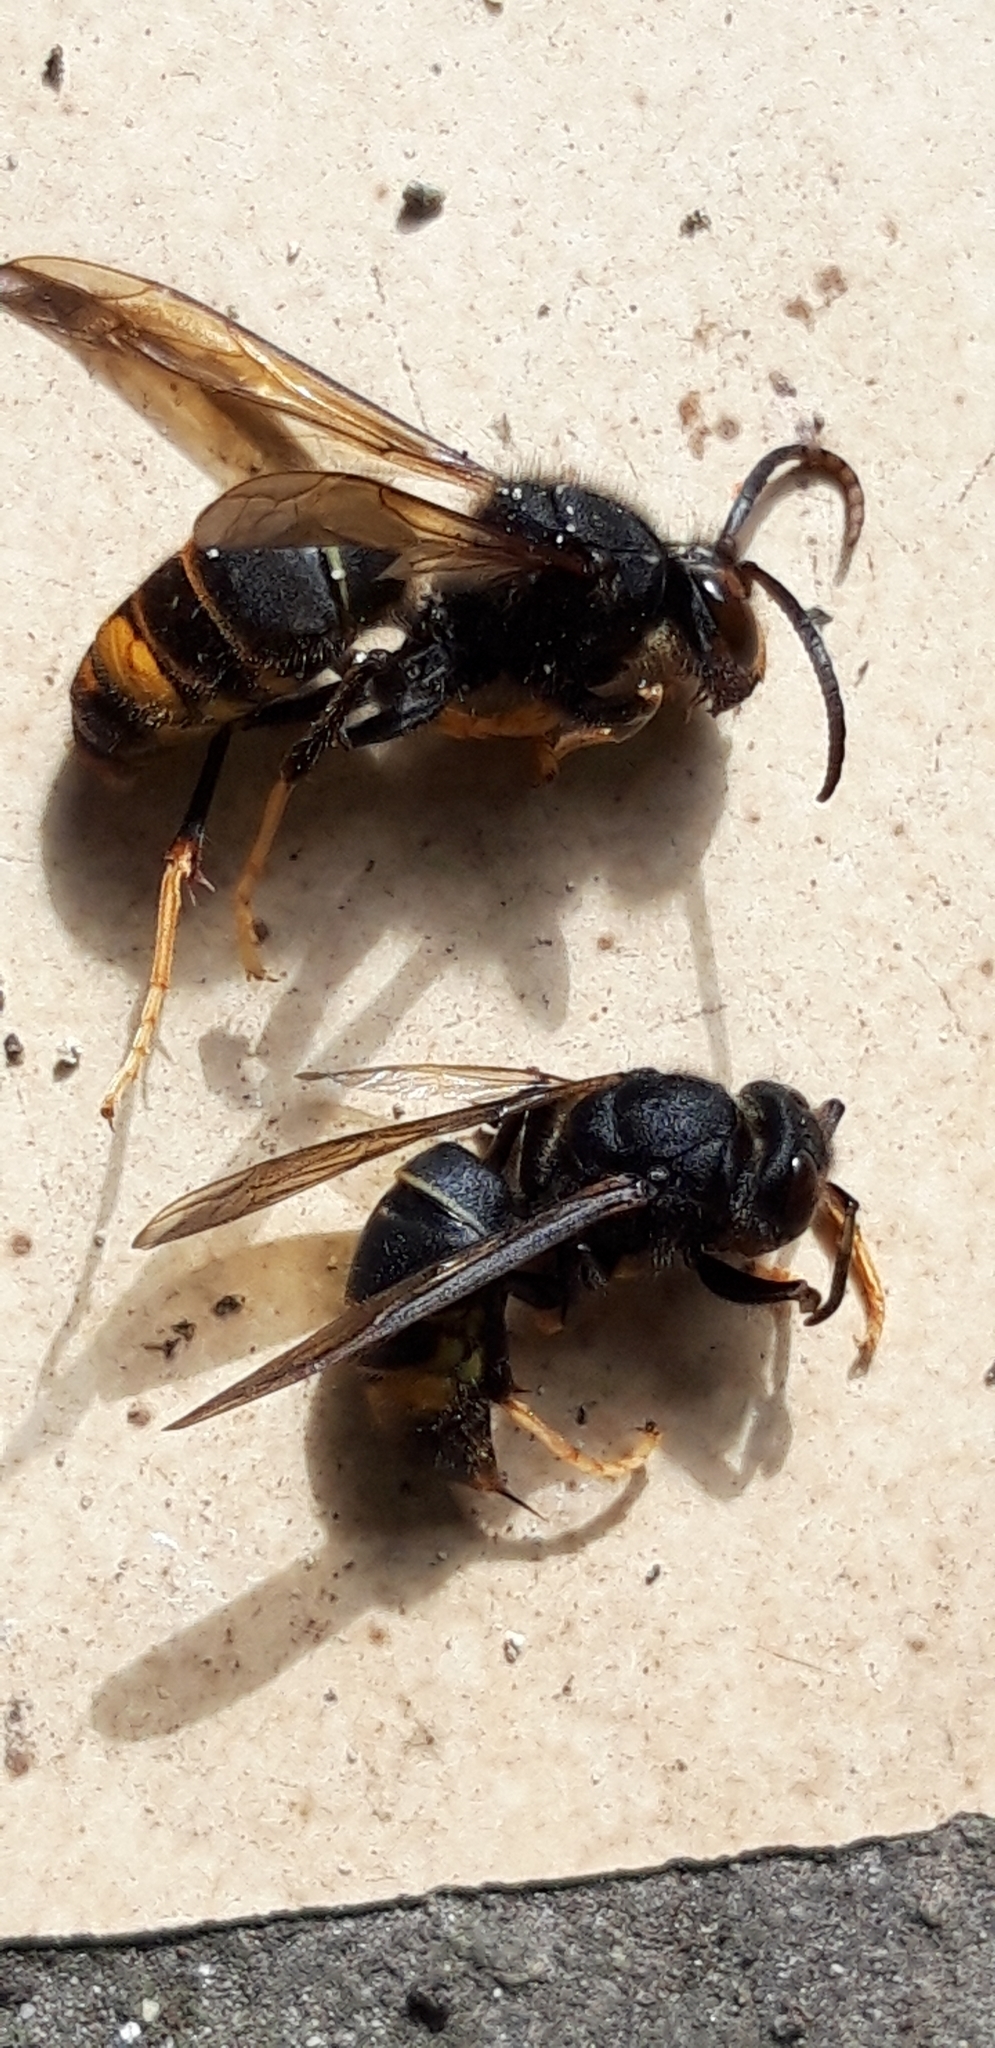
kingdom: Animalia
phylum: Arthropoda
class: Insecta
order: Hymenoptera
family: Vespidae
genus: Vespa
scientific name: Vespa velutina
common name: Asian hornet
